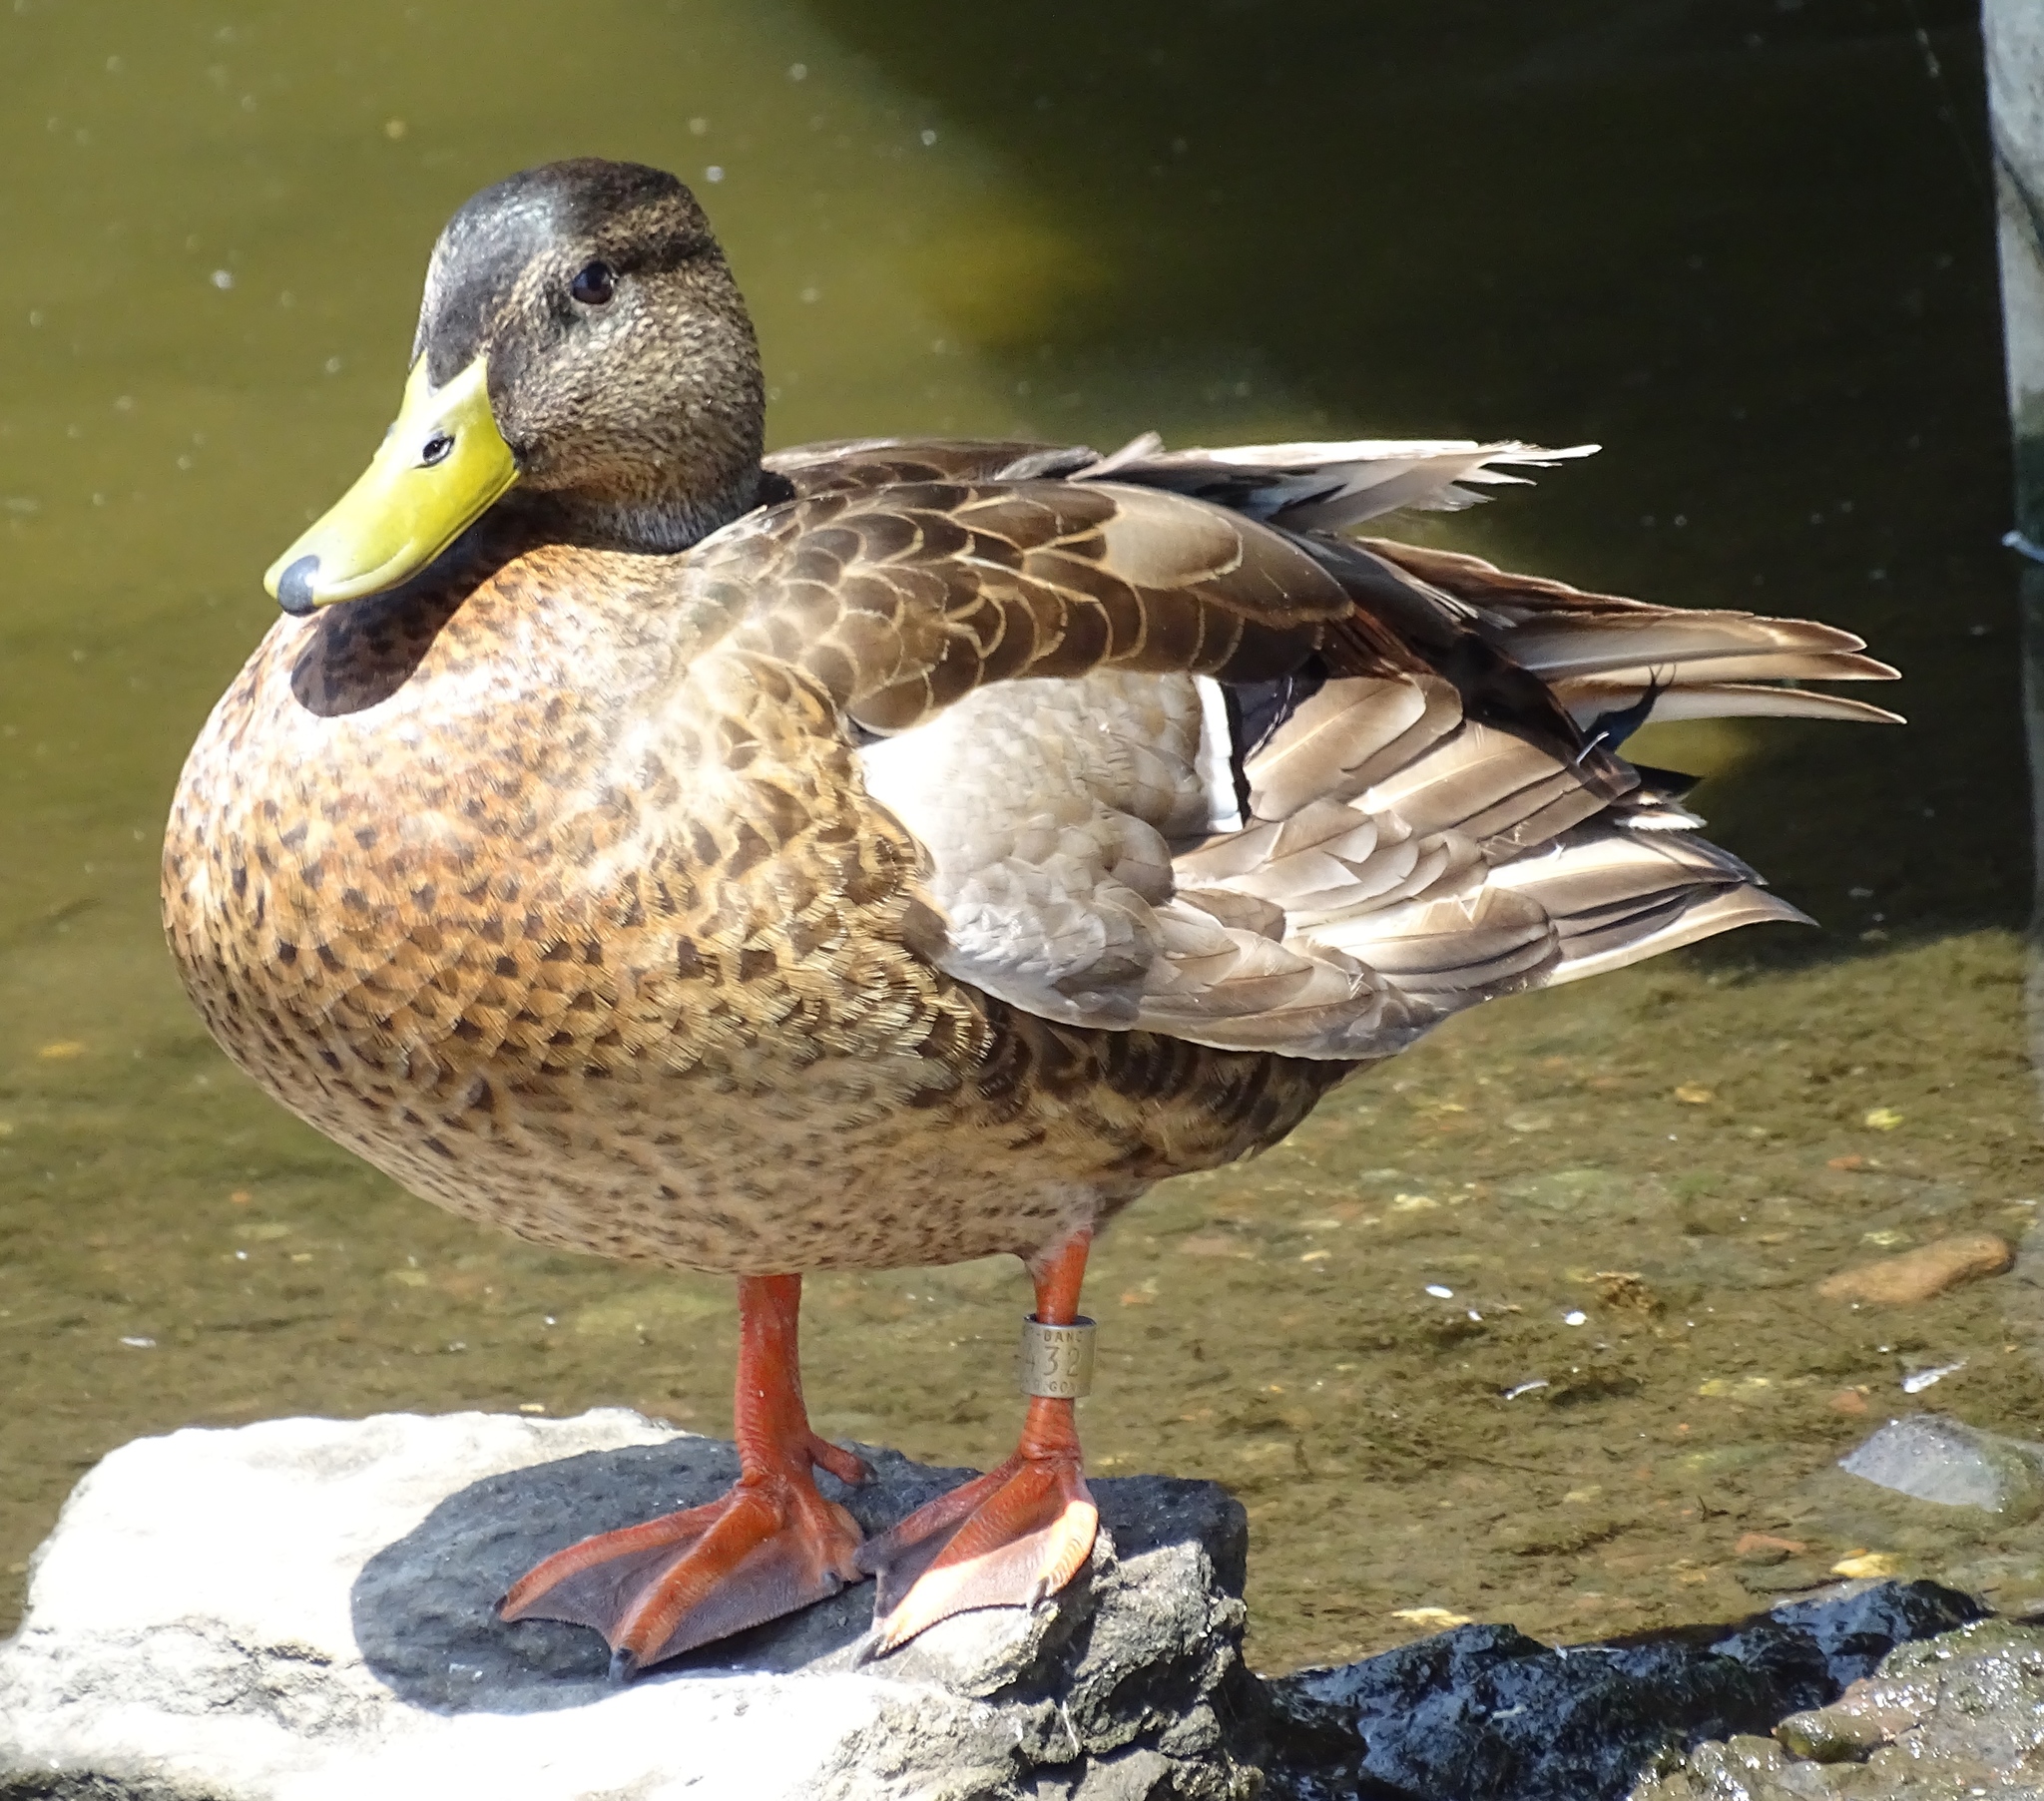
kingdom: Animalia
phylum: Chordata
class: Aves
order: Anseriformes
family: Anatidae
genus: Anas
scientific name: Anas platyrhynchos
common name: Mallard
